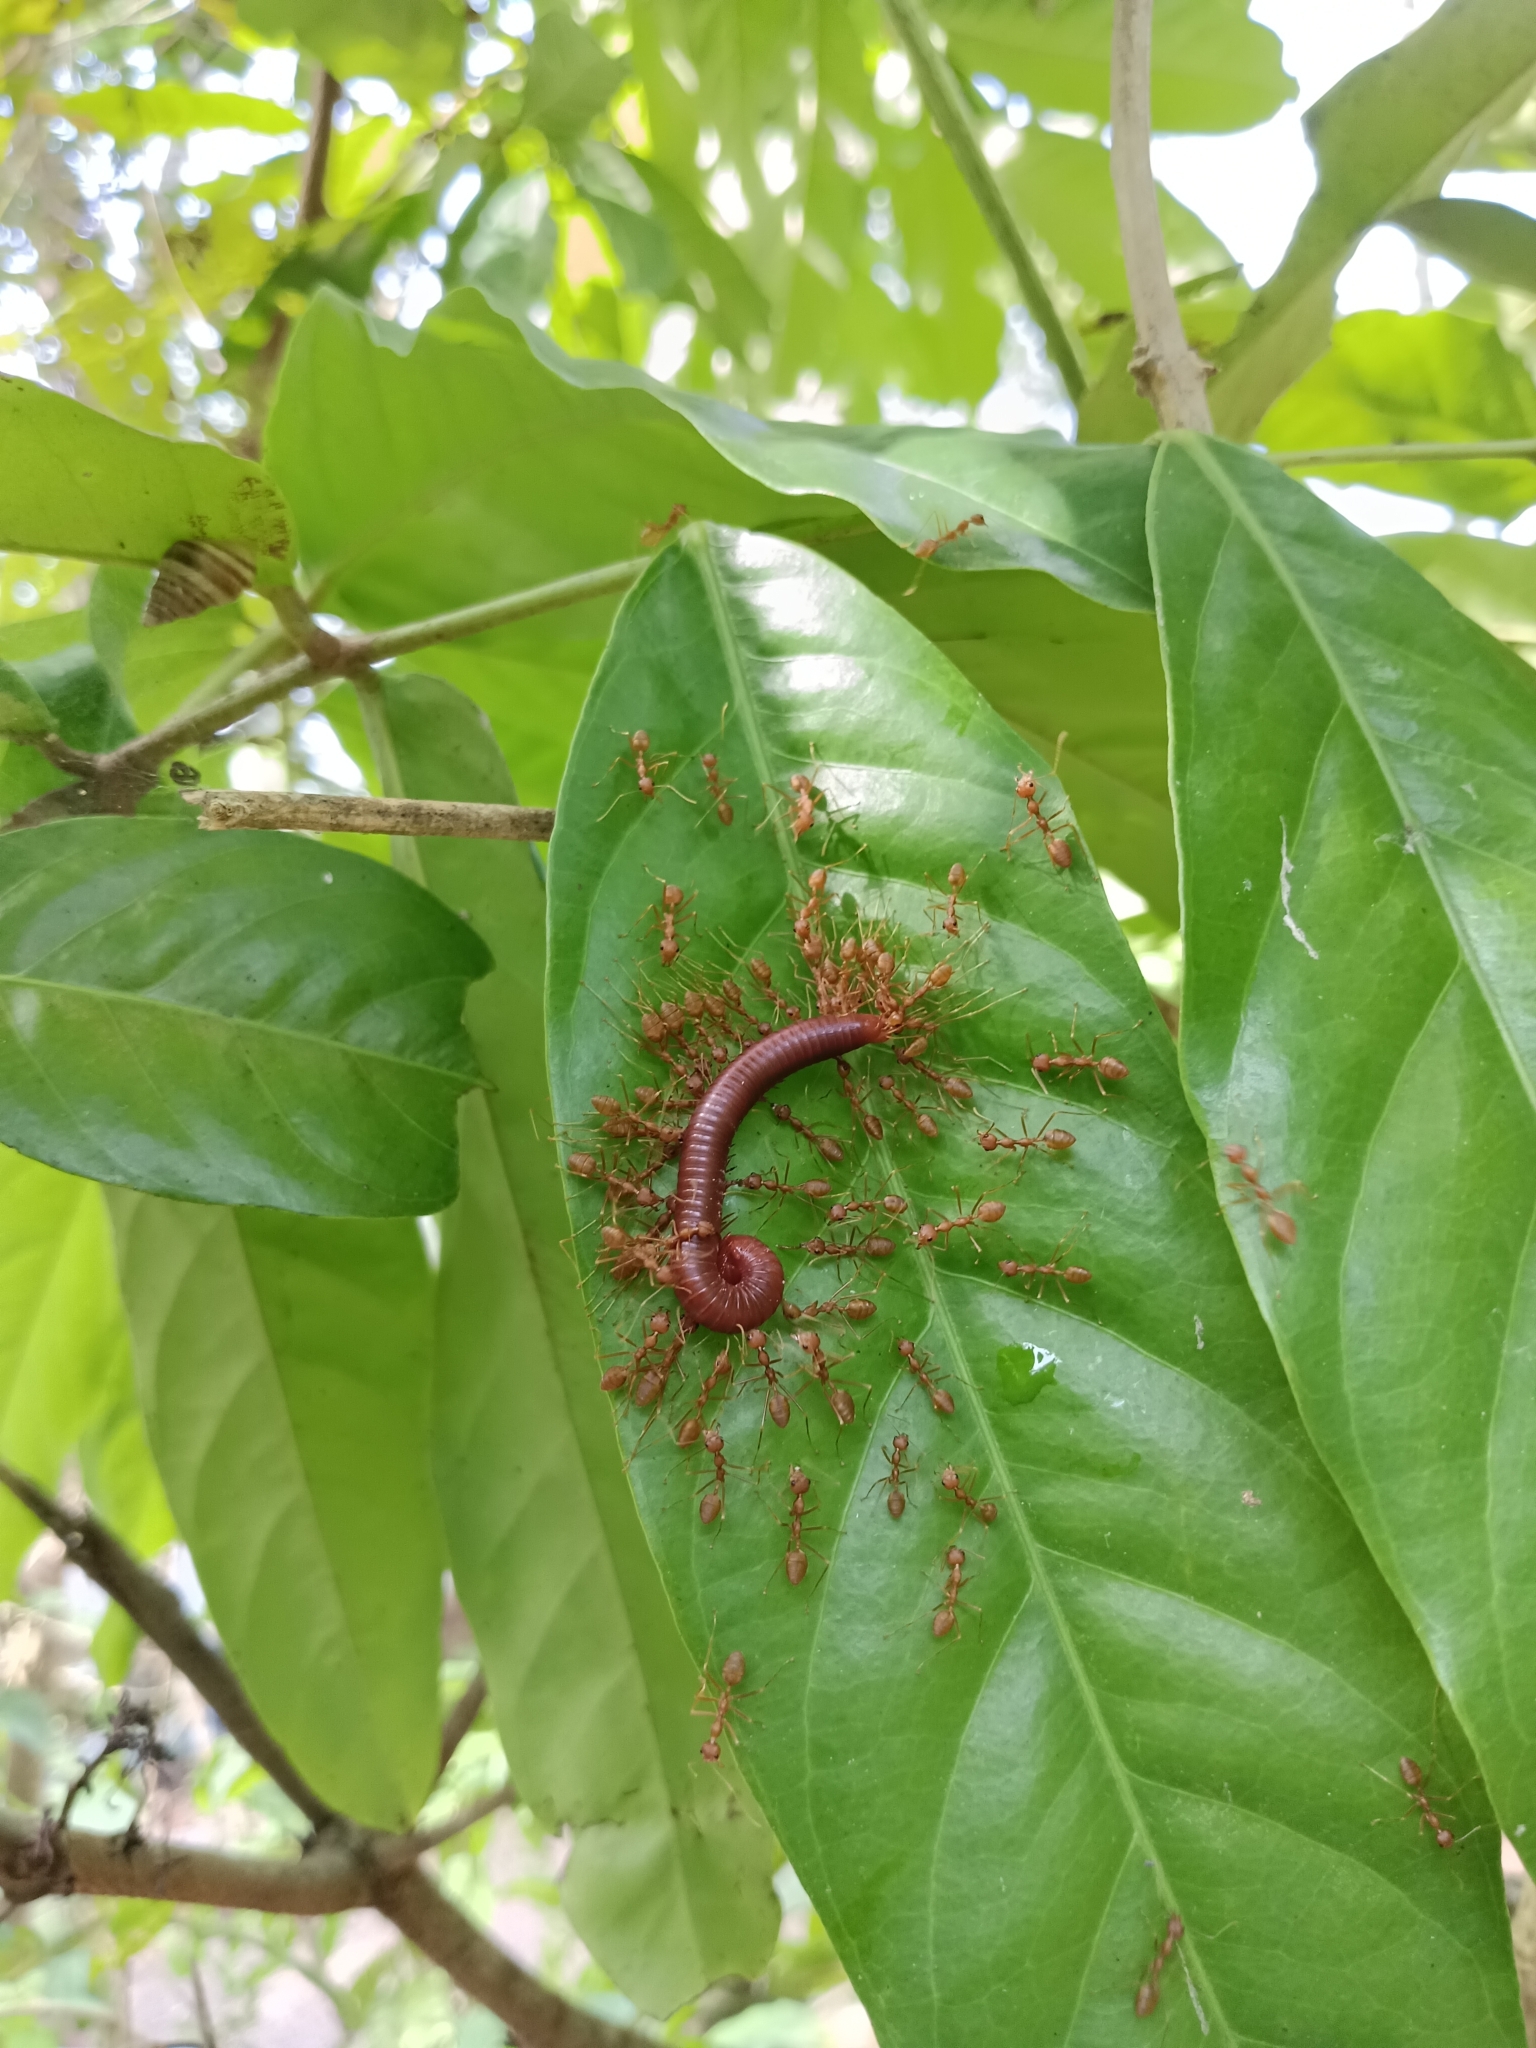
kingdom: Animalia
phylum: Arthropoda
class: Diplopoda
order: Spirobolida
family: Pachybolidae
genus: Trigoniulus
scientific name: Trigoniulus corallinus
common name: Millipede
